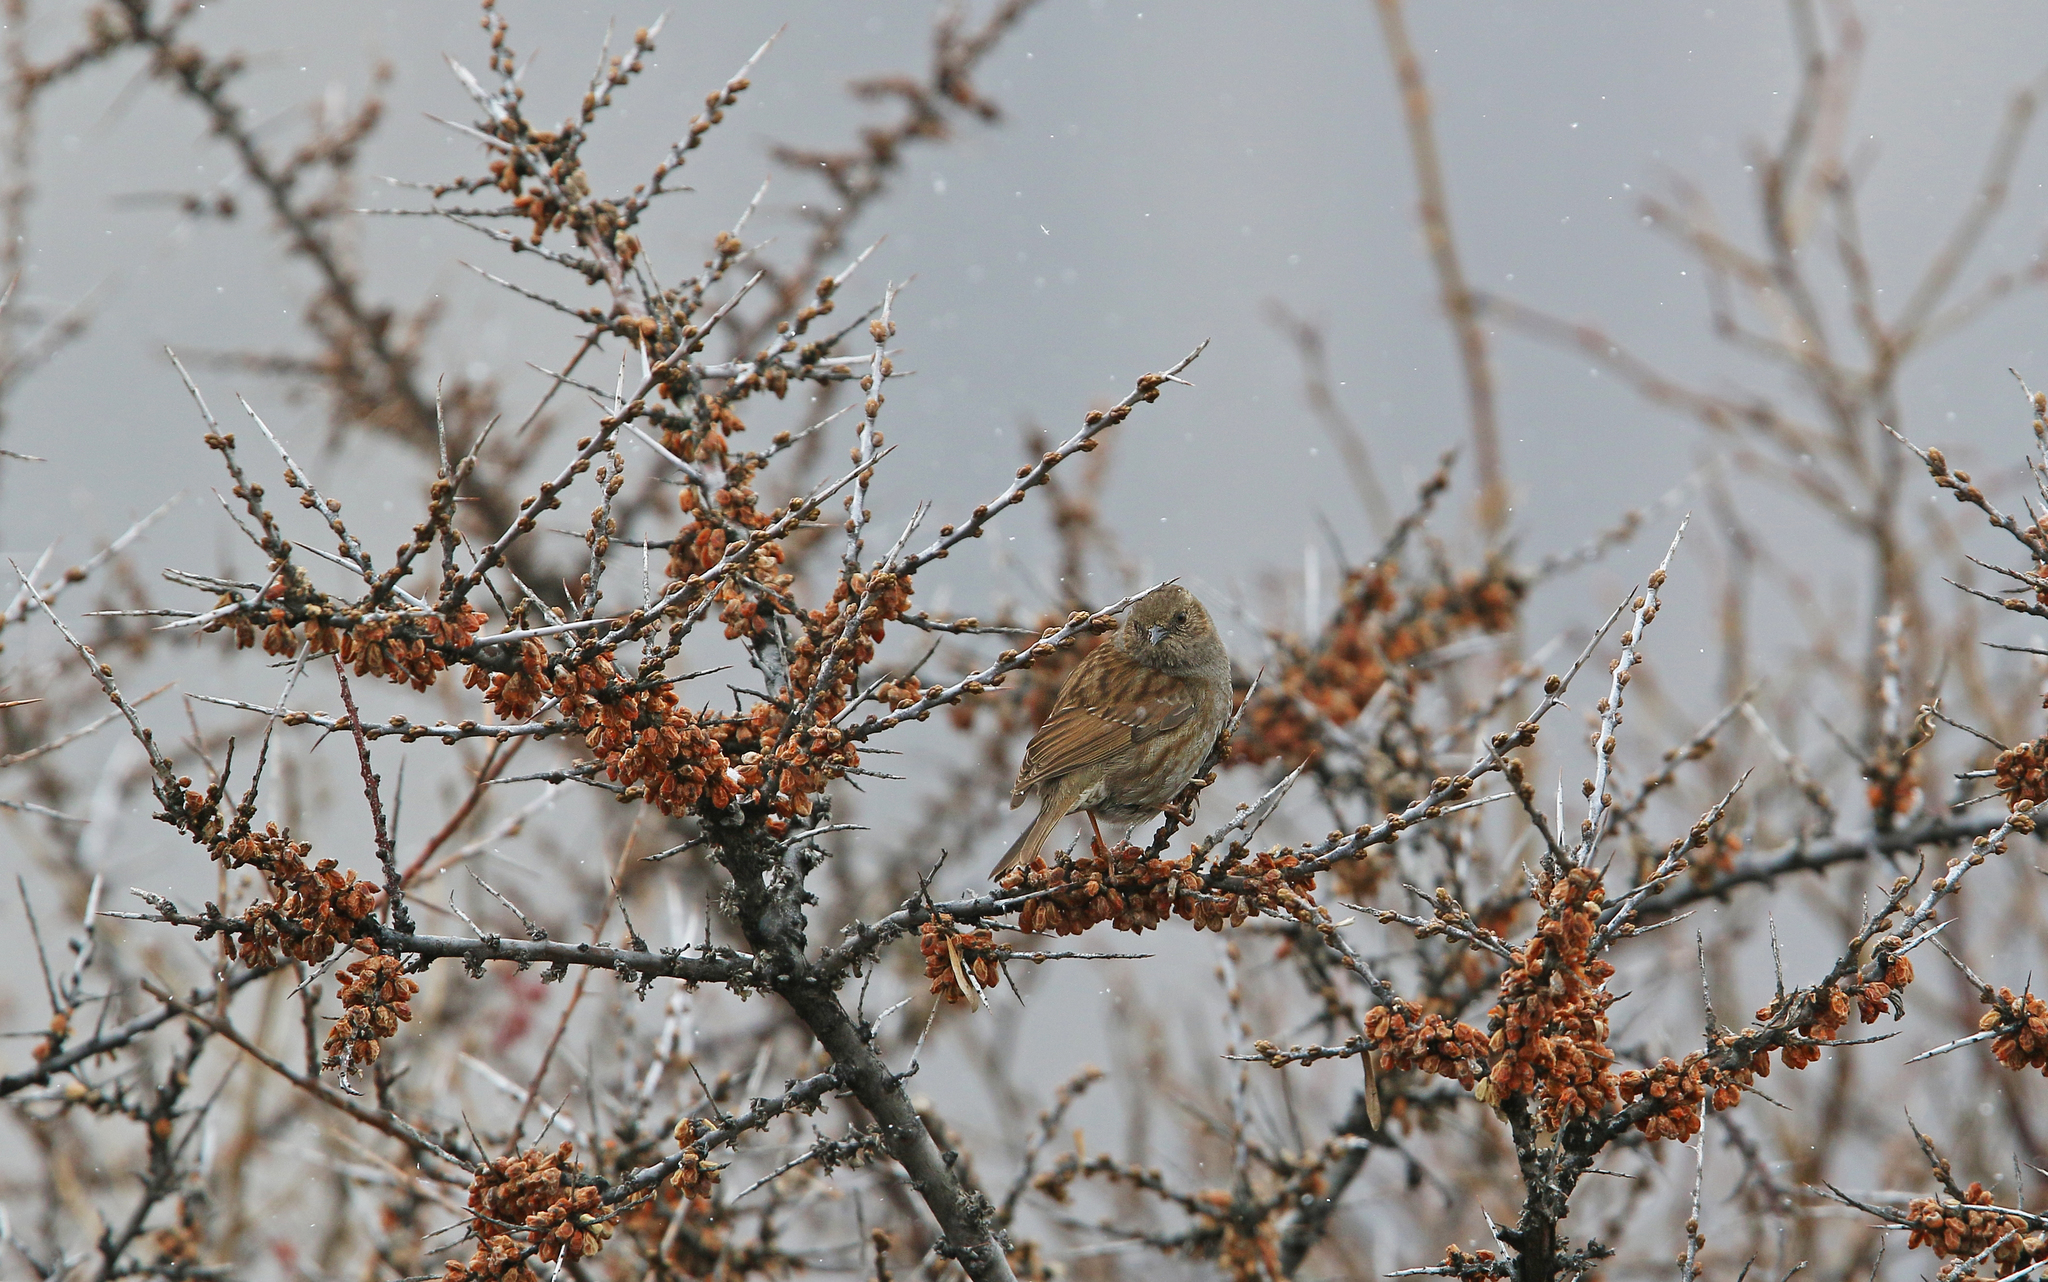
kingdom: Animalia
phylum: Chordata
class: Aves
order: Passeriformes
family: Prunellidae
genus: Prunella
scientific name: Prunella modularis
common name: Dunnock
